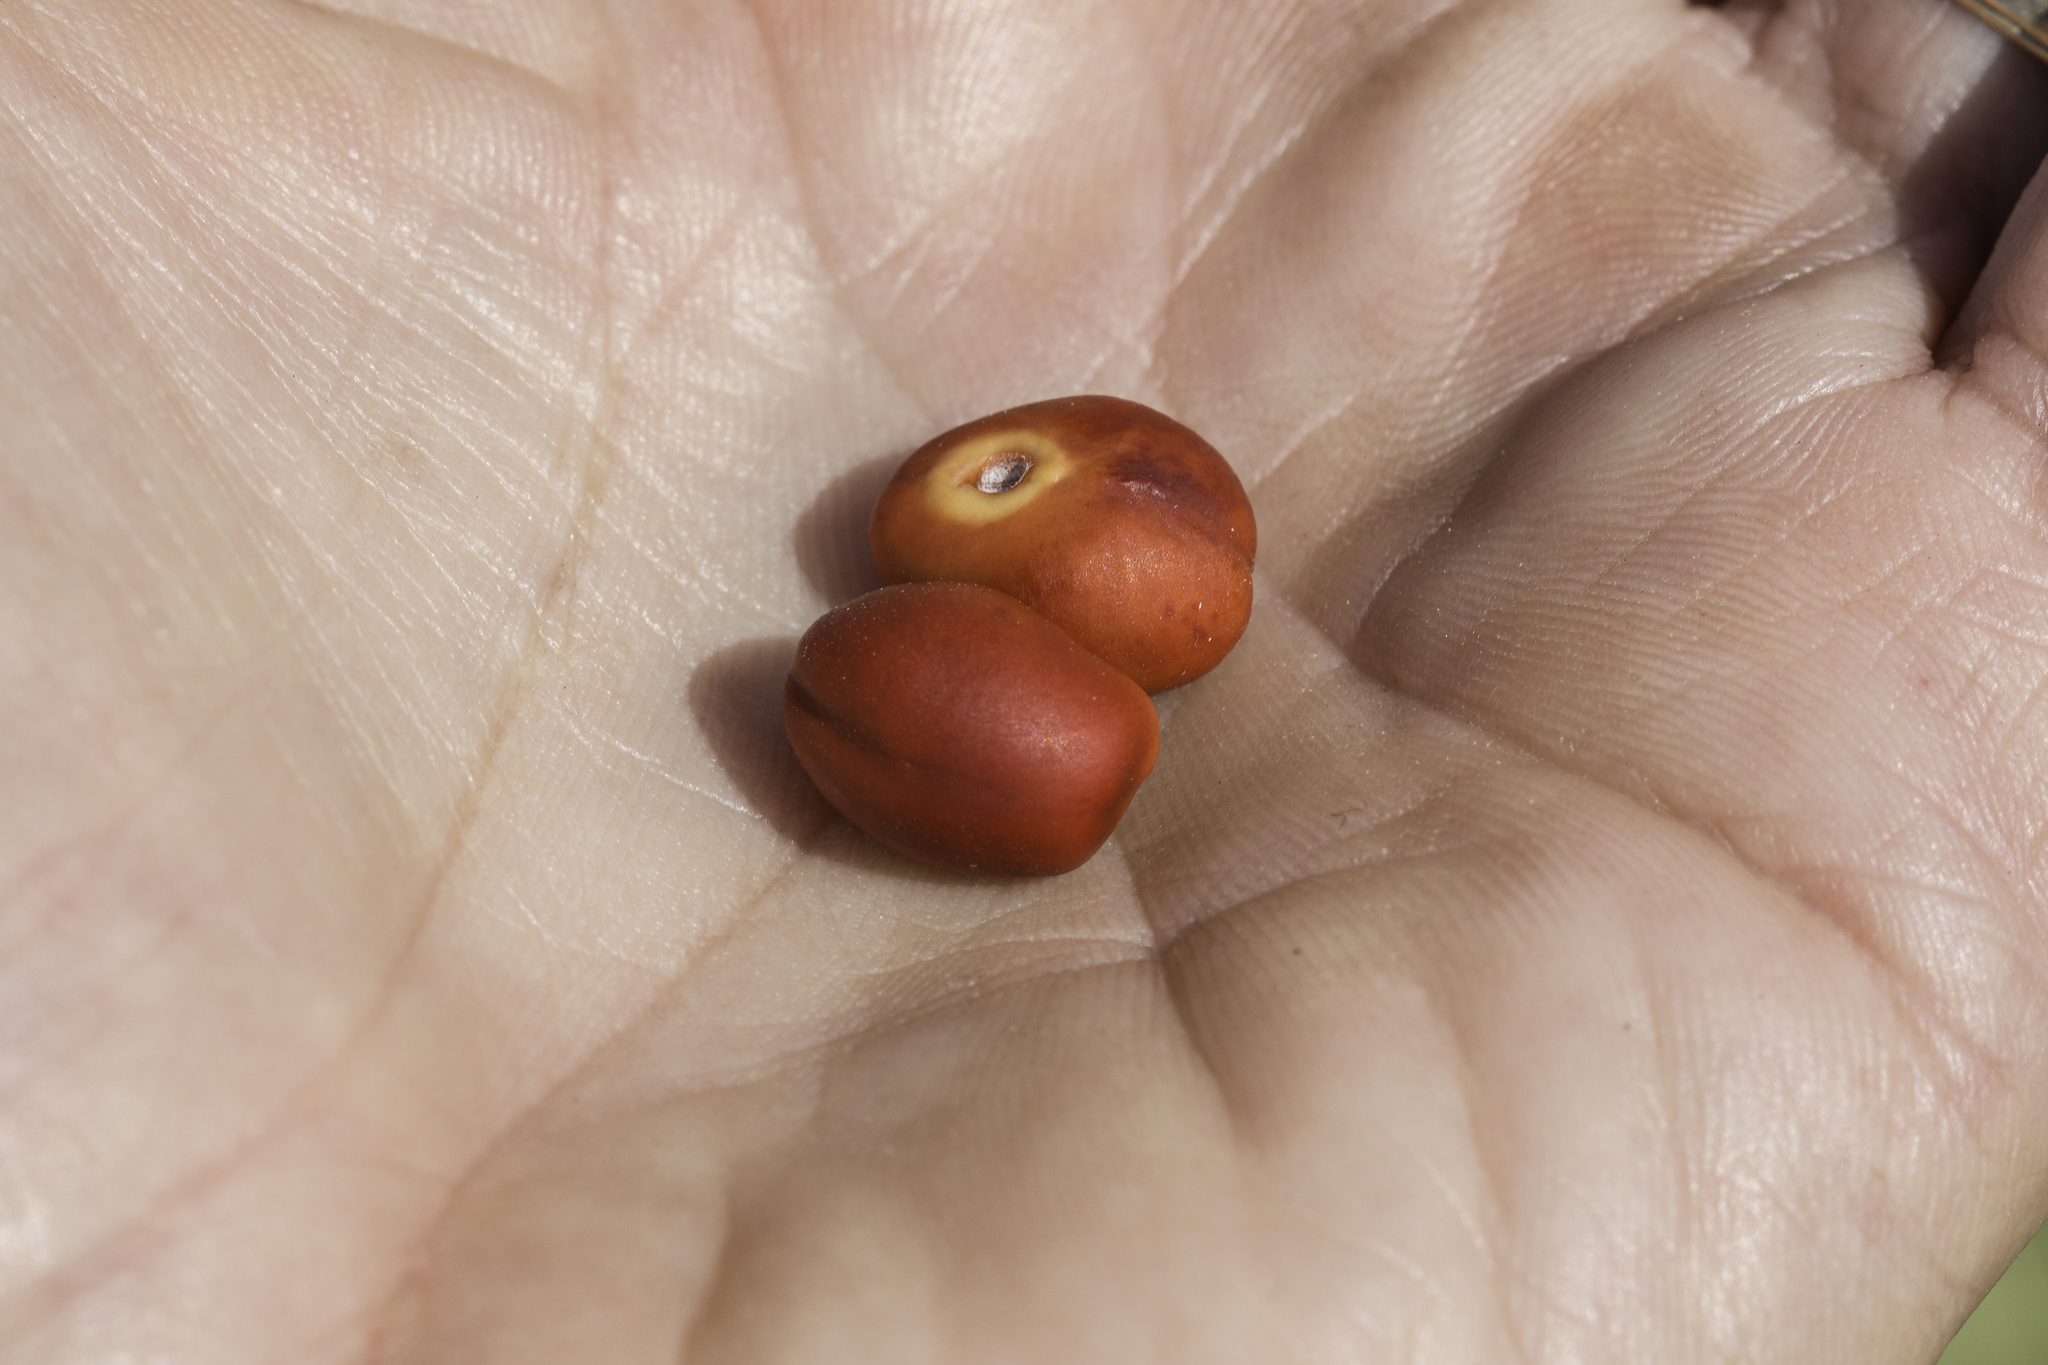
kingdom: Plantae
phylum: Tracheophyta
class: Magnoliopsida
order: Fabales
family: Fabaceae
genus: Dermatophyllum
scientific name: Dermatophyllum secundiflorum
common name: Texas-mountain-laurel
